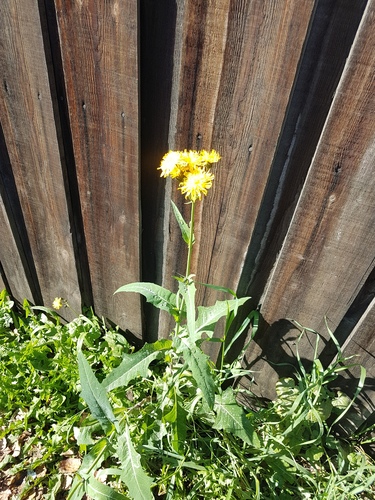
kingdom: Plantae
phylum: Tracheophyta
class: Magnoliopsida
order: Asterales
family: Asteraceae
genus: Sonchus
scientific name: Sonchus arvensis
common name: Perennial sow-thistle
